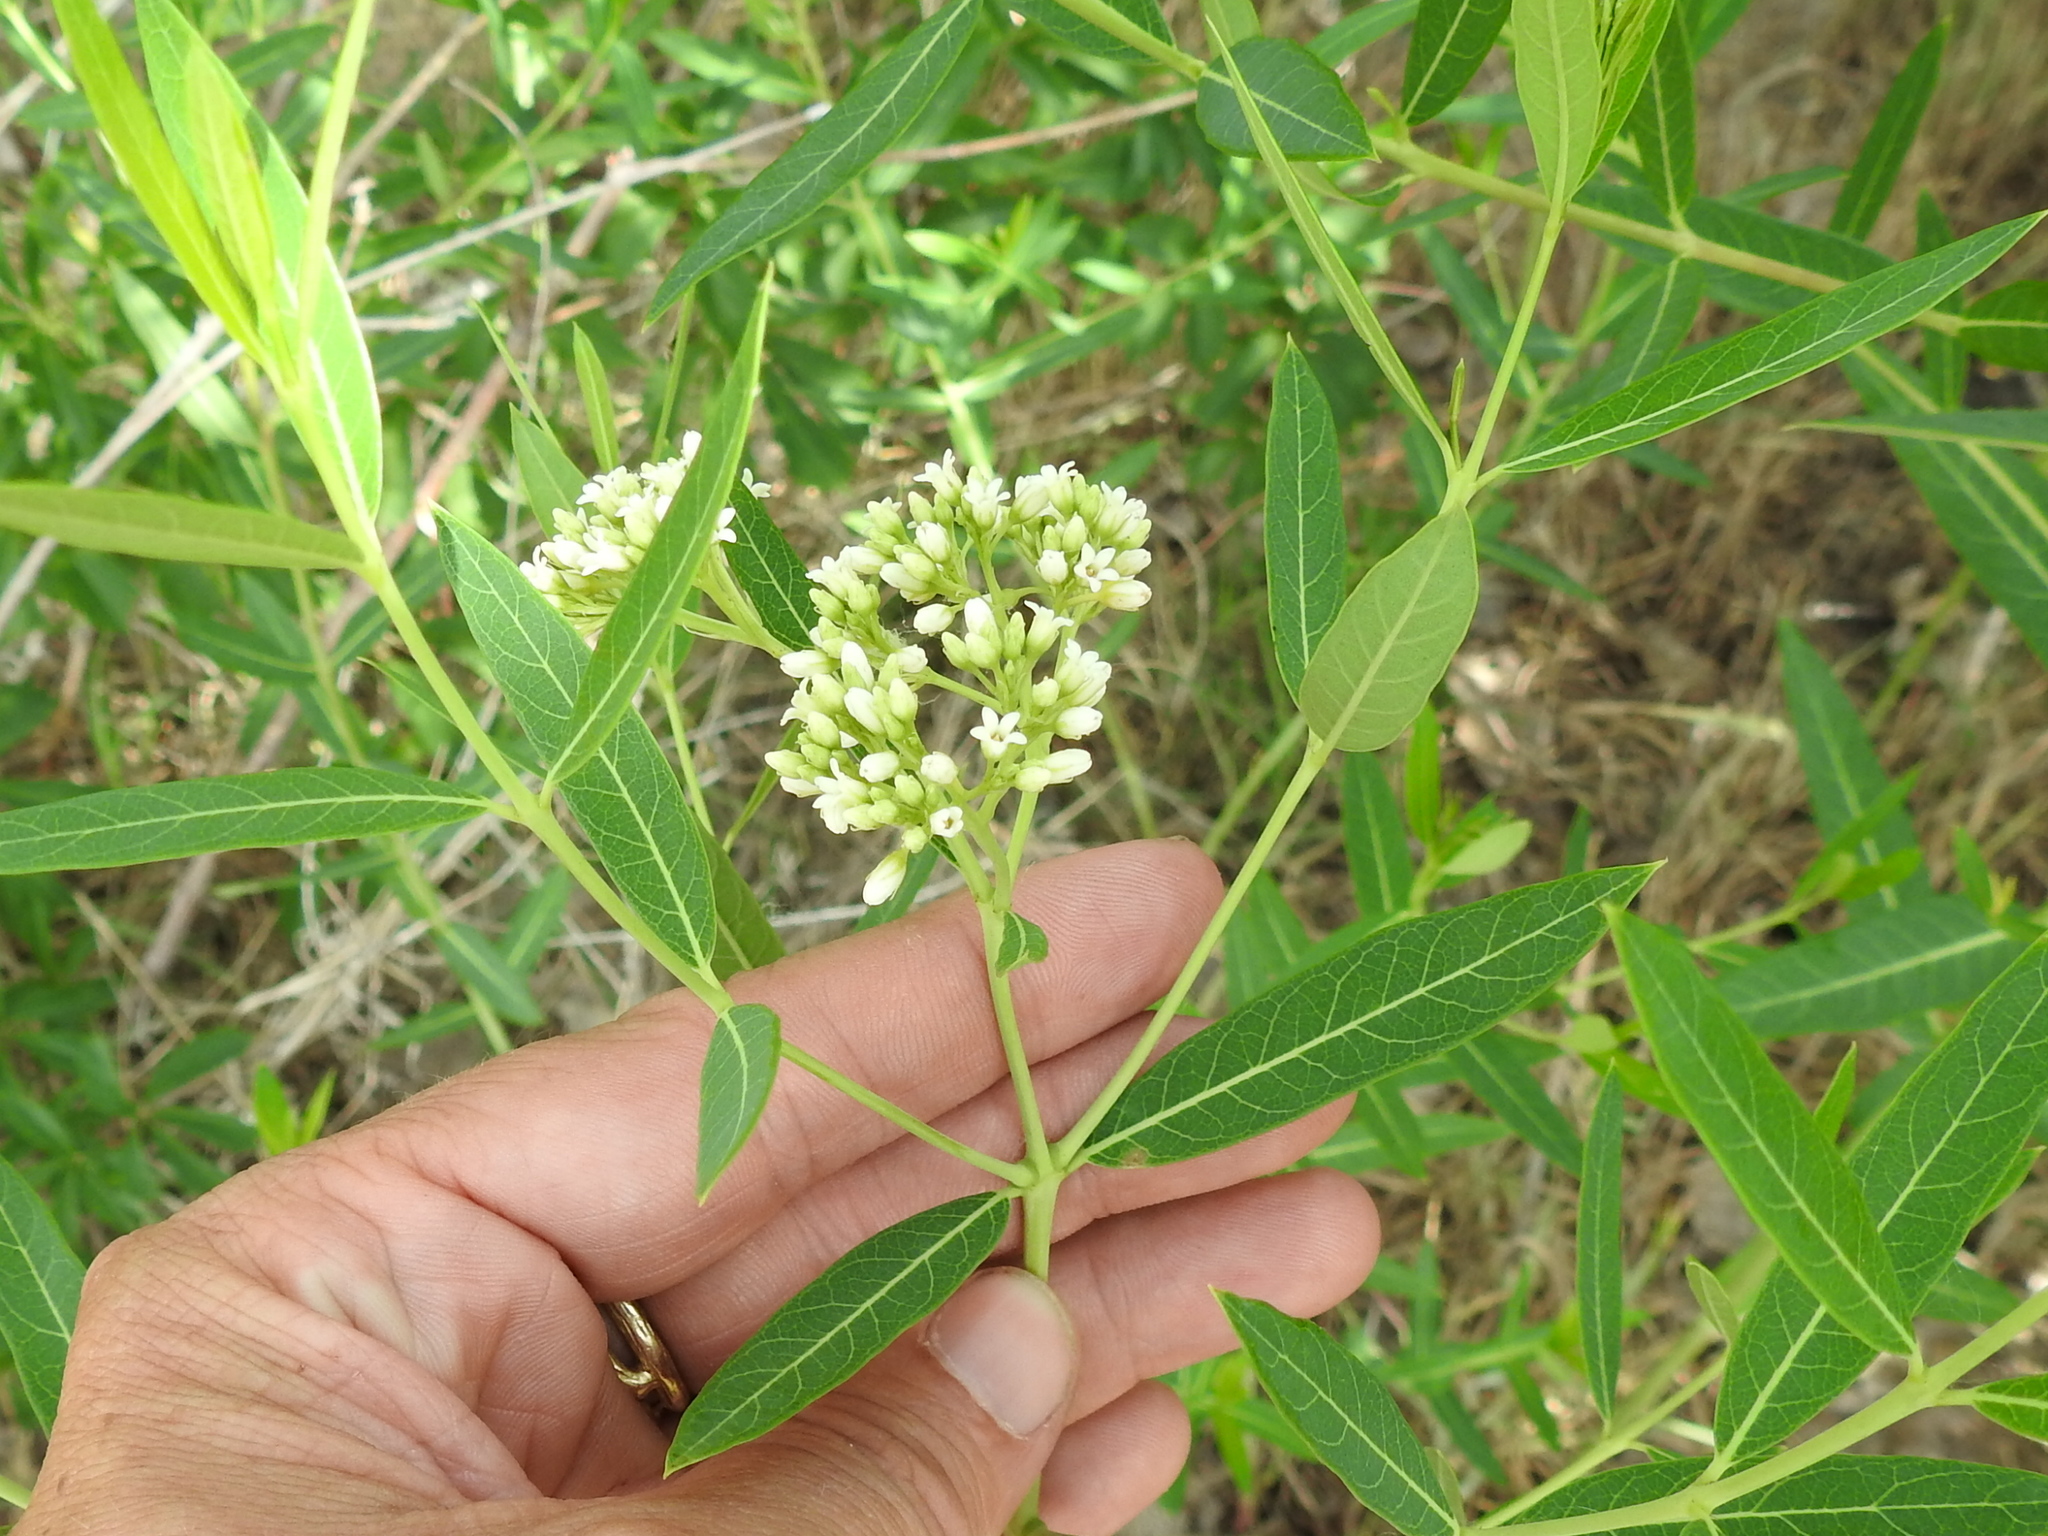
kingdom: Plantae
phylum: Tracheophyta
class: Magnoliopsida
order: Gentianales
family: Apocynaceae
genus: Apocynum
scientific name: Apocynum cannabinum
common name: Hemp dogbane
